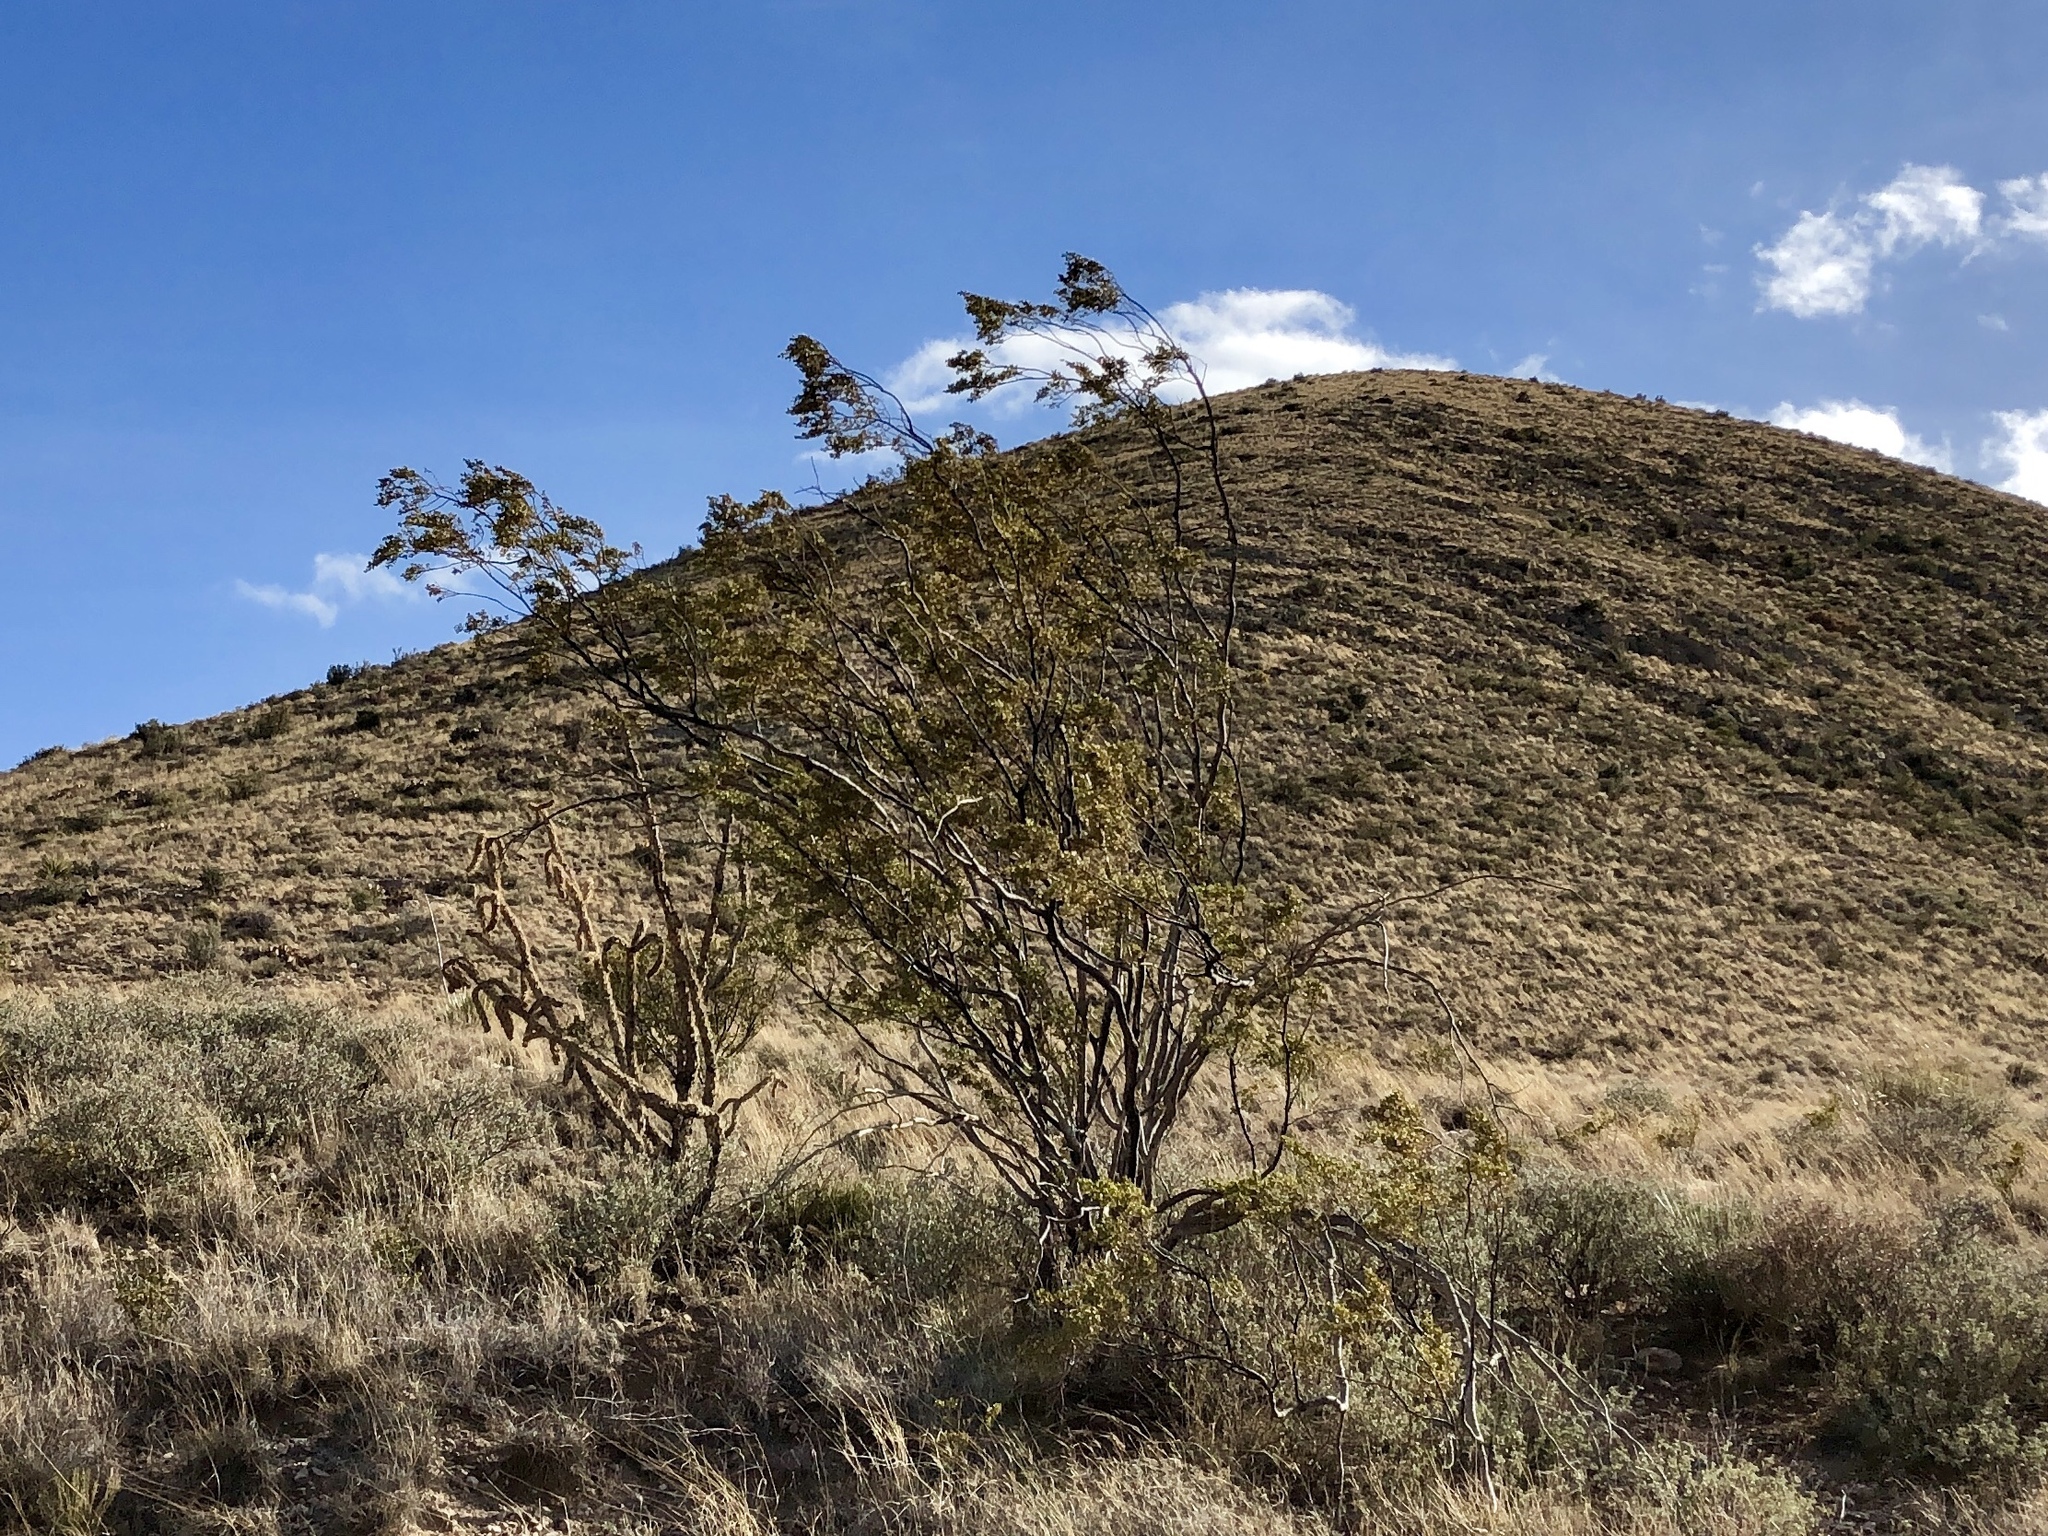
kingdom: Plantae
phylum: Tracheophyta
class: Magnoliopsida
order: Zygophyllales
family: Zygophyllaceae
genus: Larrea
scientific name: Larrea tridentata
